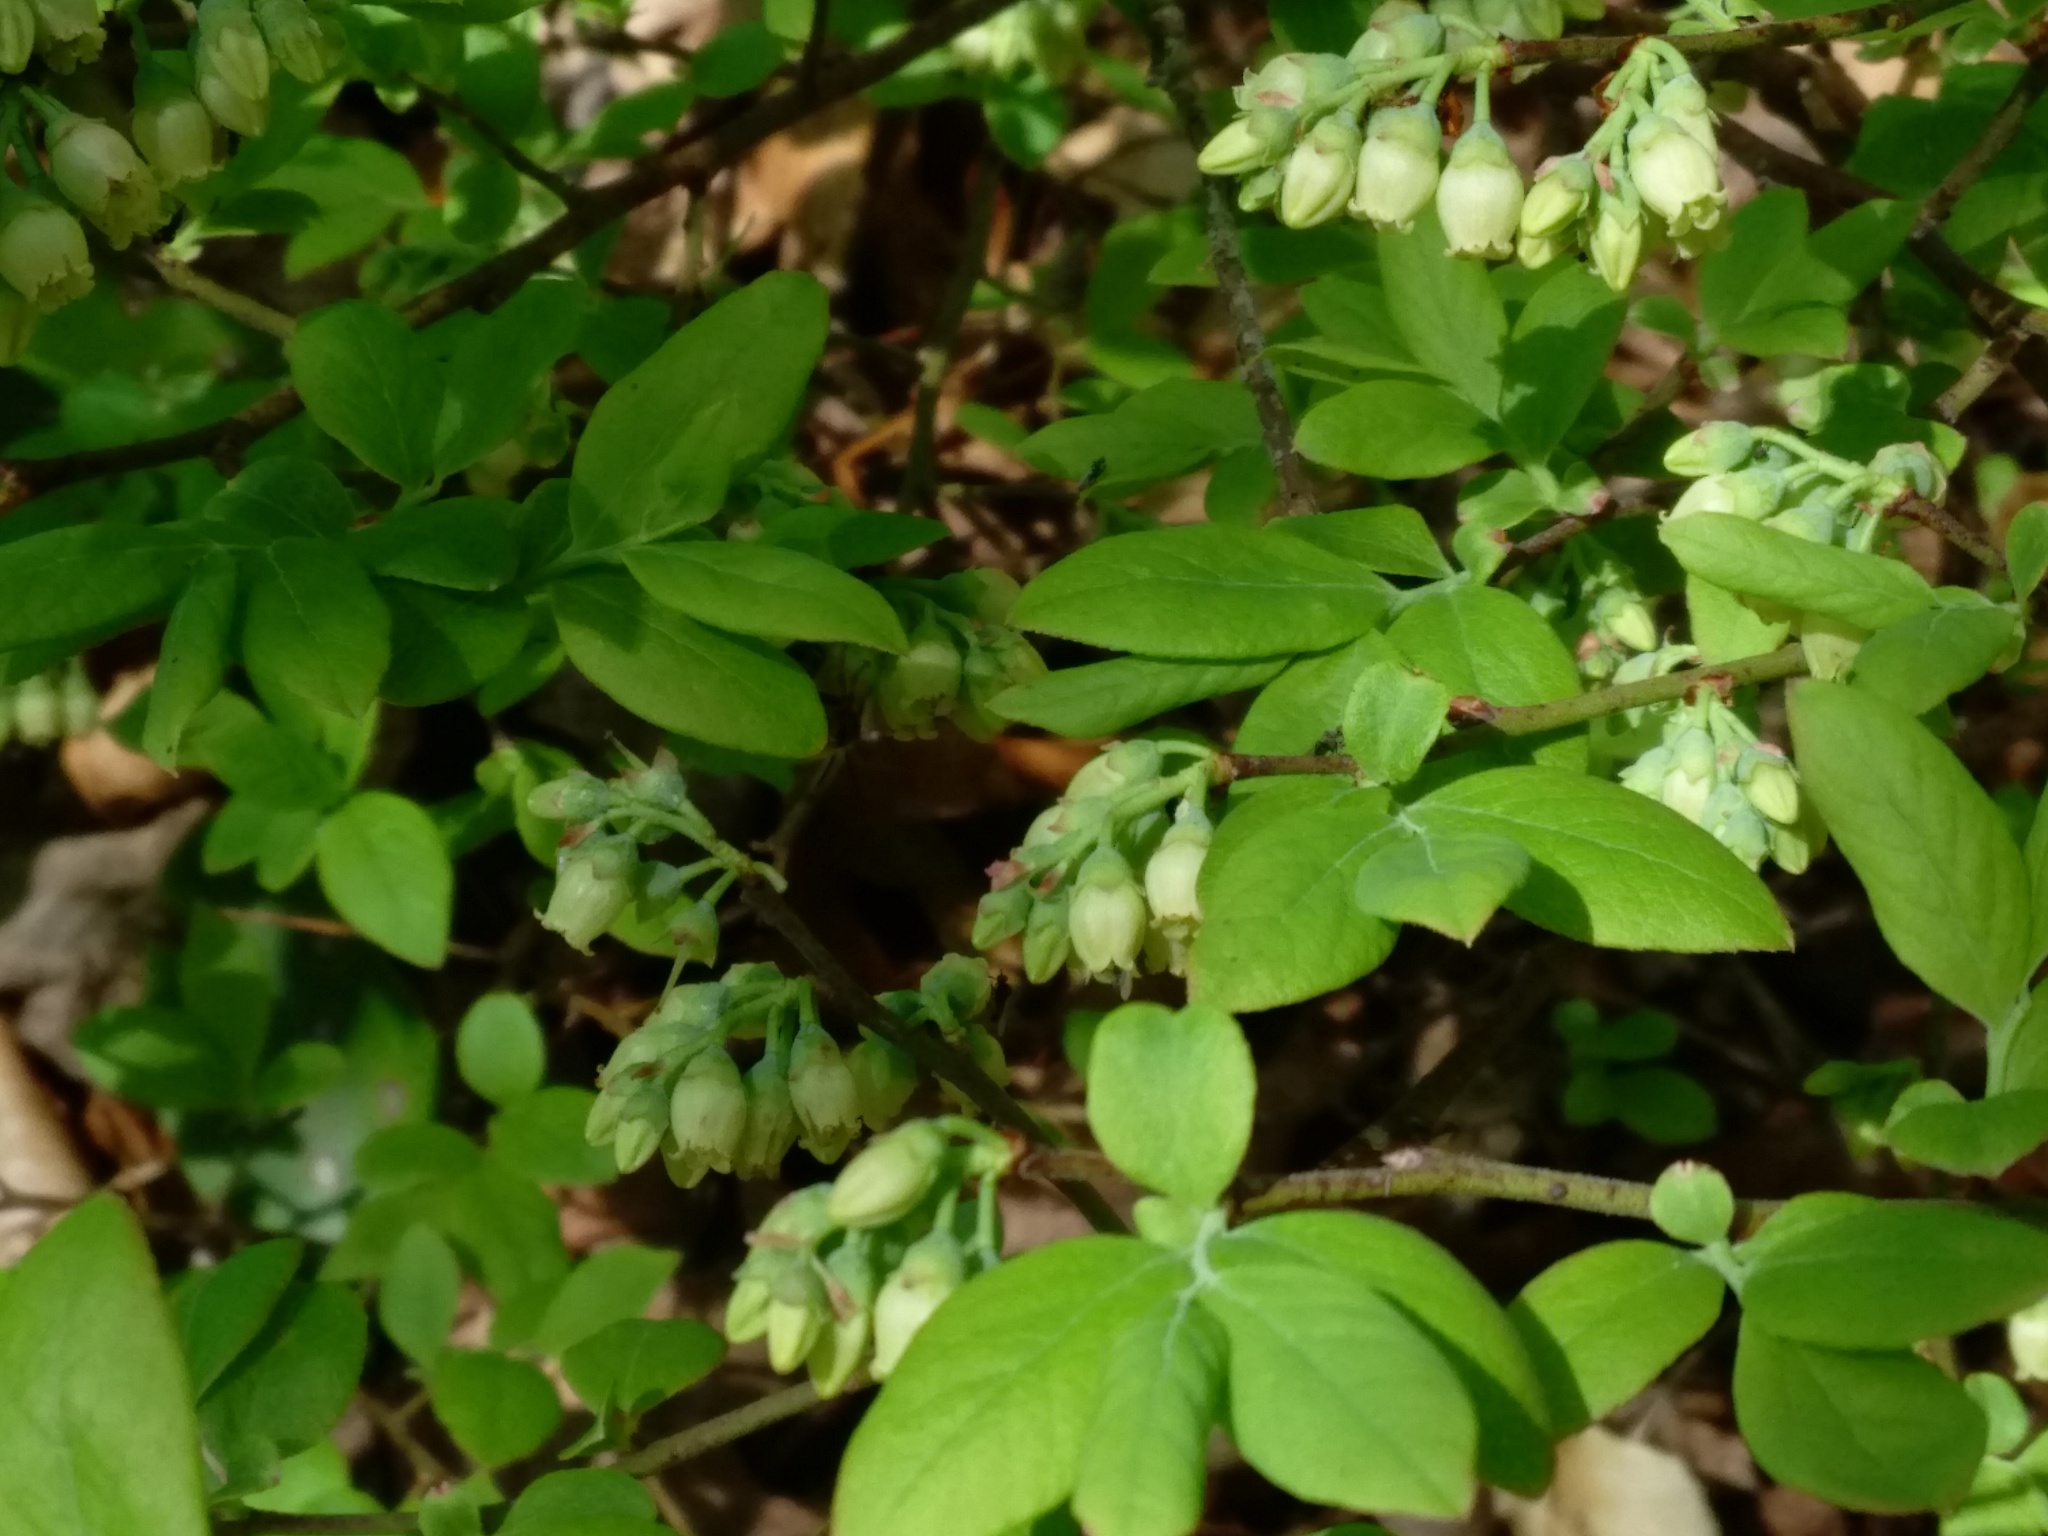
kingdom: Plantae
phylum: Tracheophyta
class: Magnoliopsida
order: Ericales
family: Ericaceae
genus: Vaccinium
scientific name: Vaccinium corymbosum
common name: Blueberry
